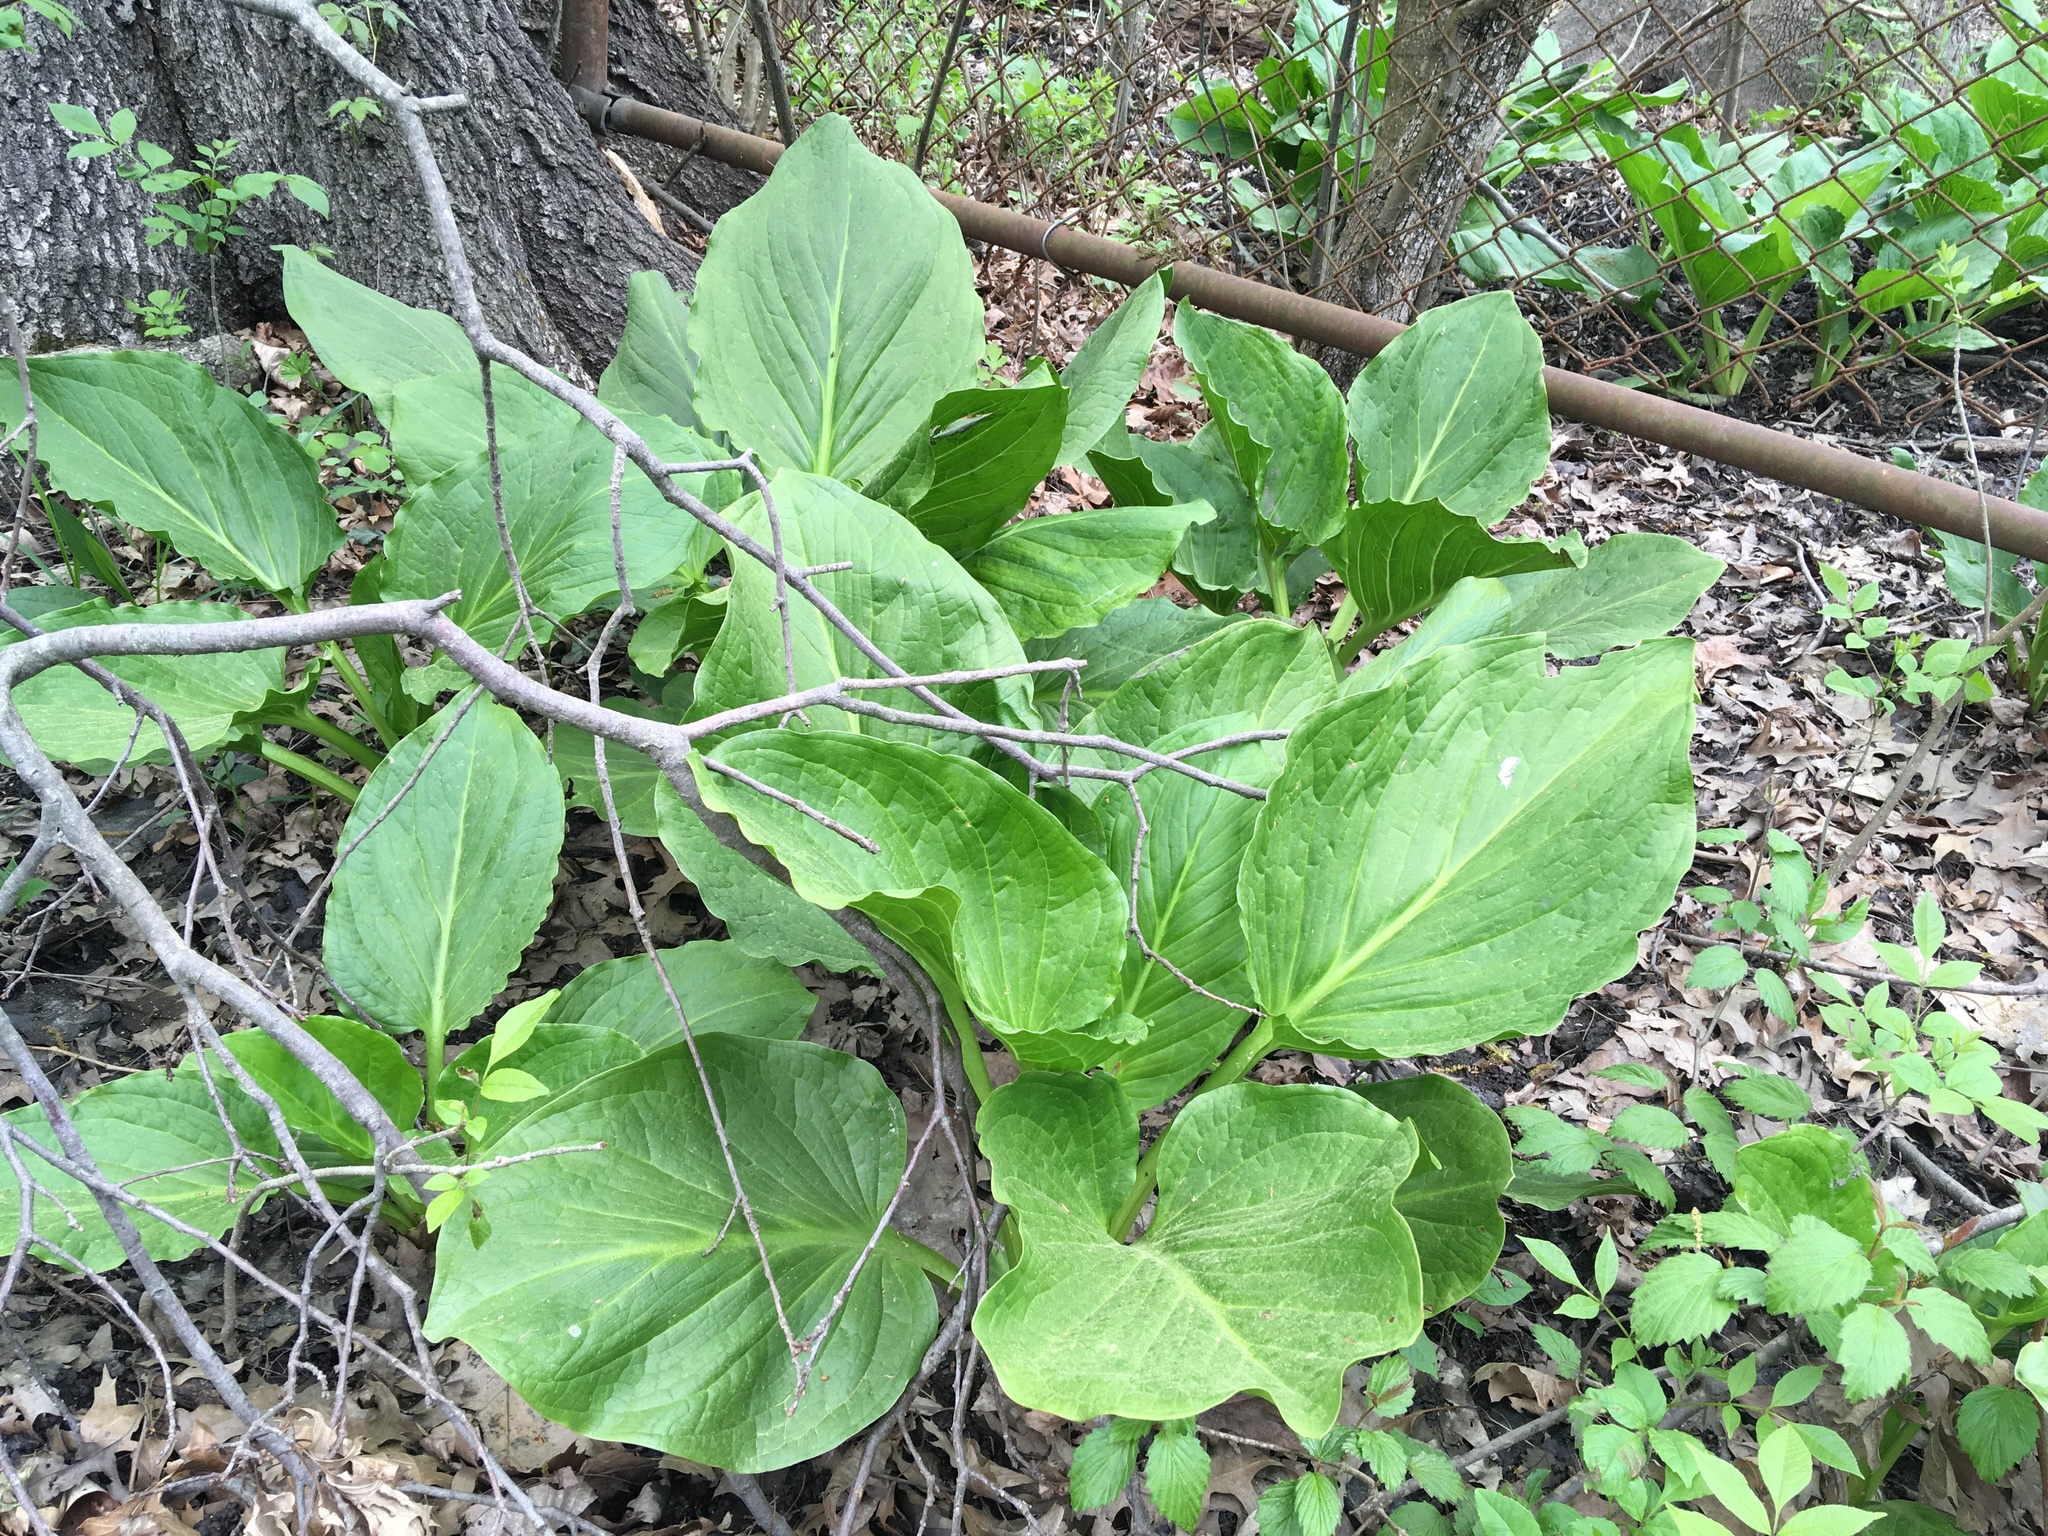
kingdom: Plantae
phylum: Tracheophyta
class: Liliopsida
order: Alismatales
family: Araceae
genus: Symplocarpus
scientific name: Symplocarpus foetidus
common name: Eastern skunk cabbage
